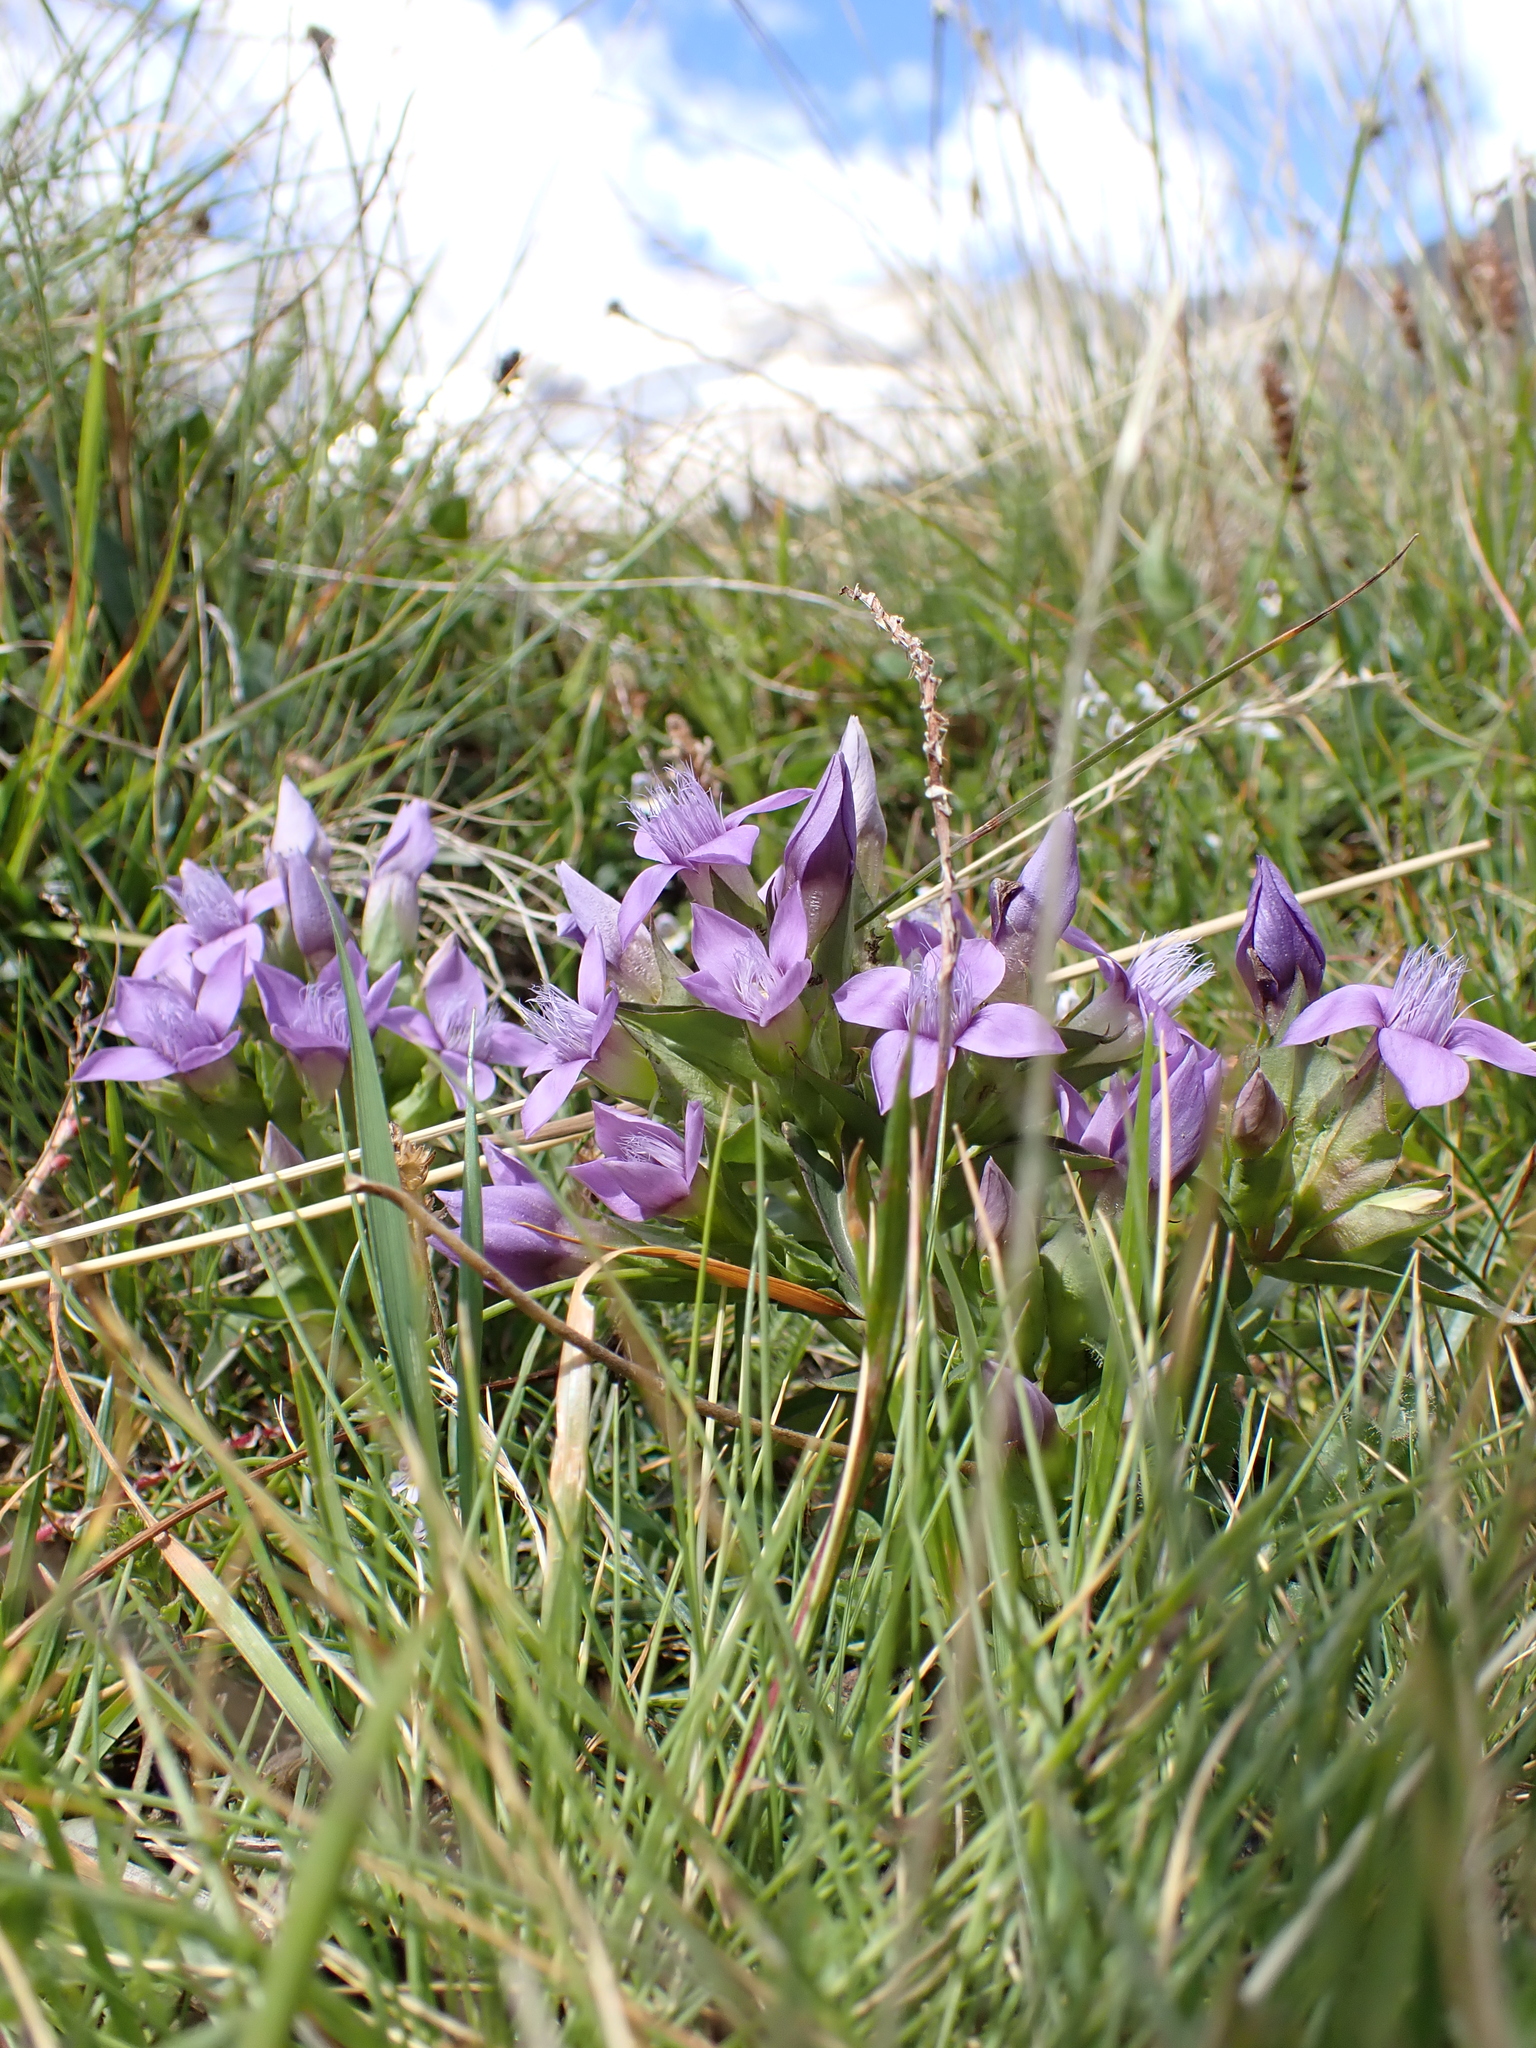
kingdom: Plantae
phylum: Tracheophyta
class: Magnoliopsida
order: Gentianales
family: Gentianaceae
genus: Gentianella
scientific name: Gentianella campestris
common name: Field gentian
